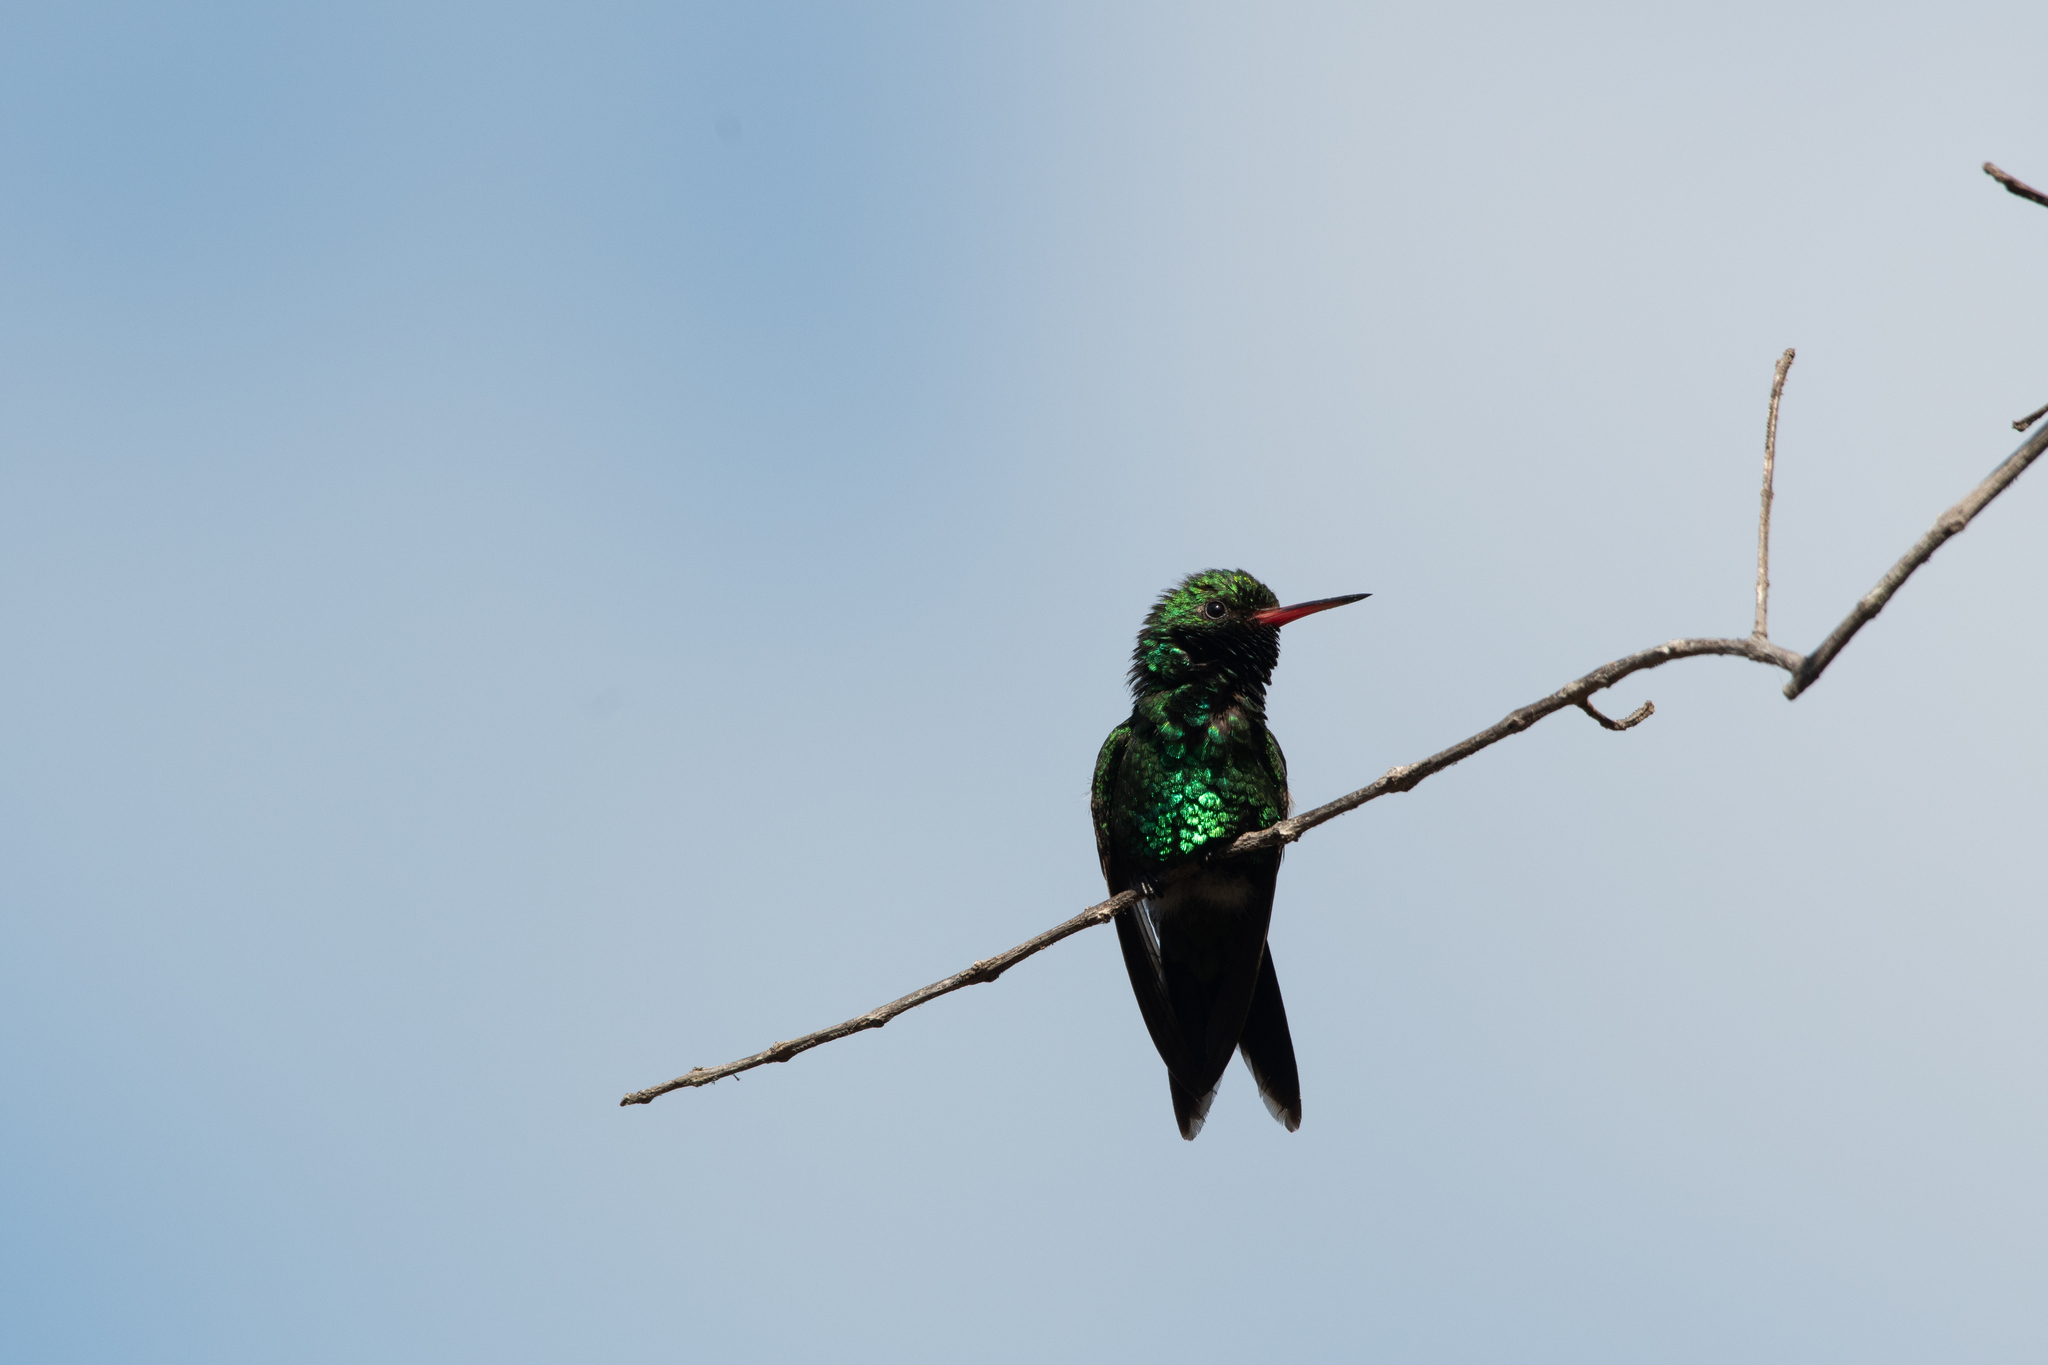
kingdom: Animalia
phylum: Chordata
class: Aves
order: Apodiformes
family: Trochilidae
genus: Cynanthus
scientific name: Cynanthus canivetii
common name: Canivet's emerald
